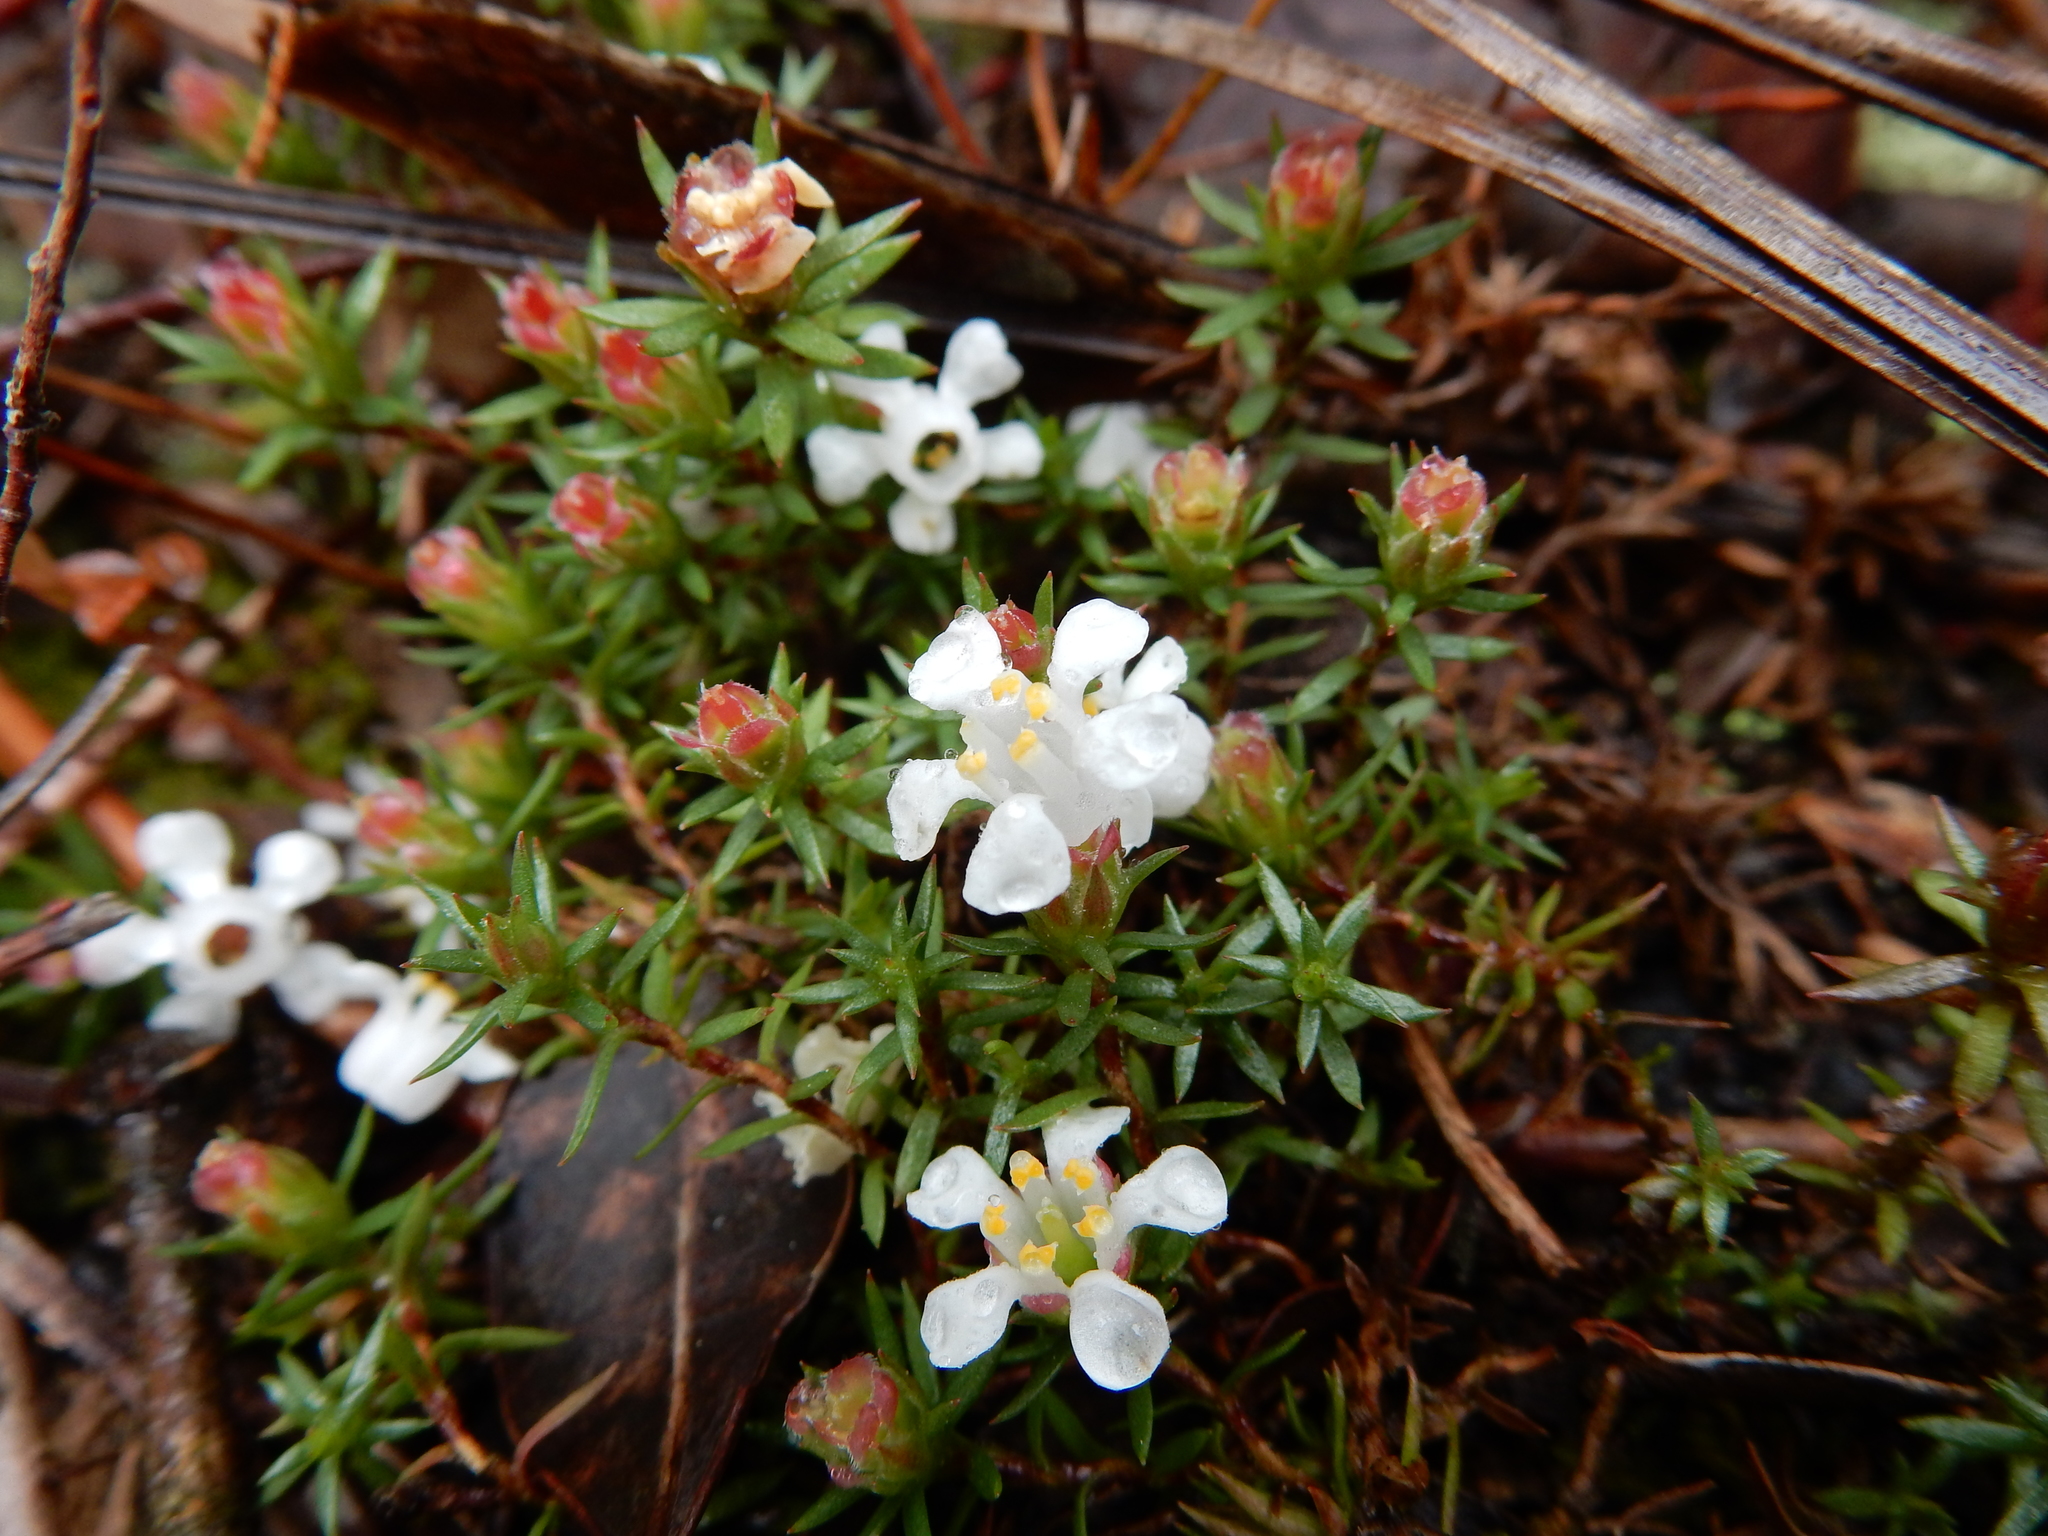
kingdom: Plantae
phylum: Tracheophyta
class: Magnoliopsida
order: Ericales
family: Diapensiaceae
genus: Pyxidanthera
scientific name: Pyxidanthera barbulata
